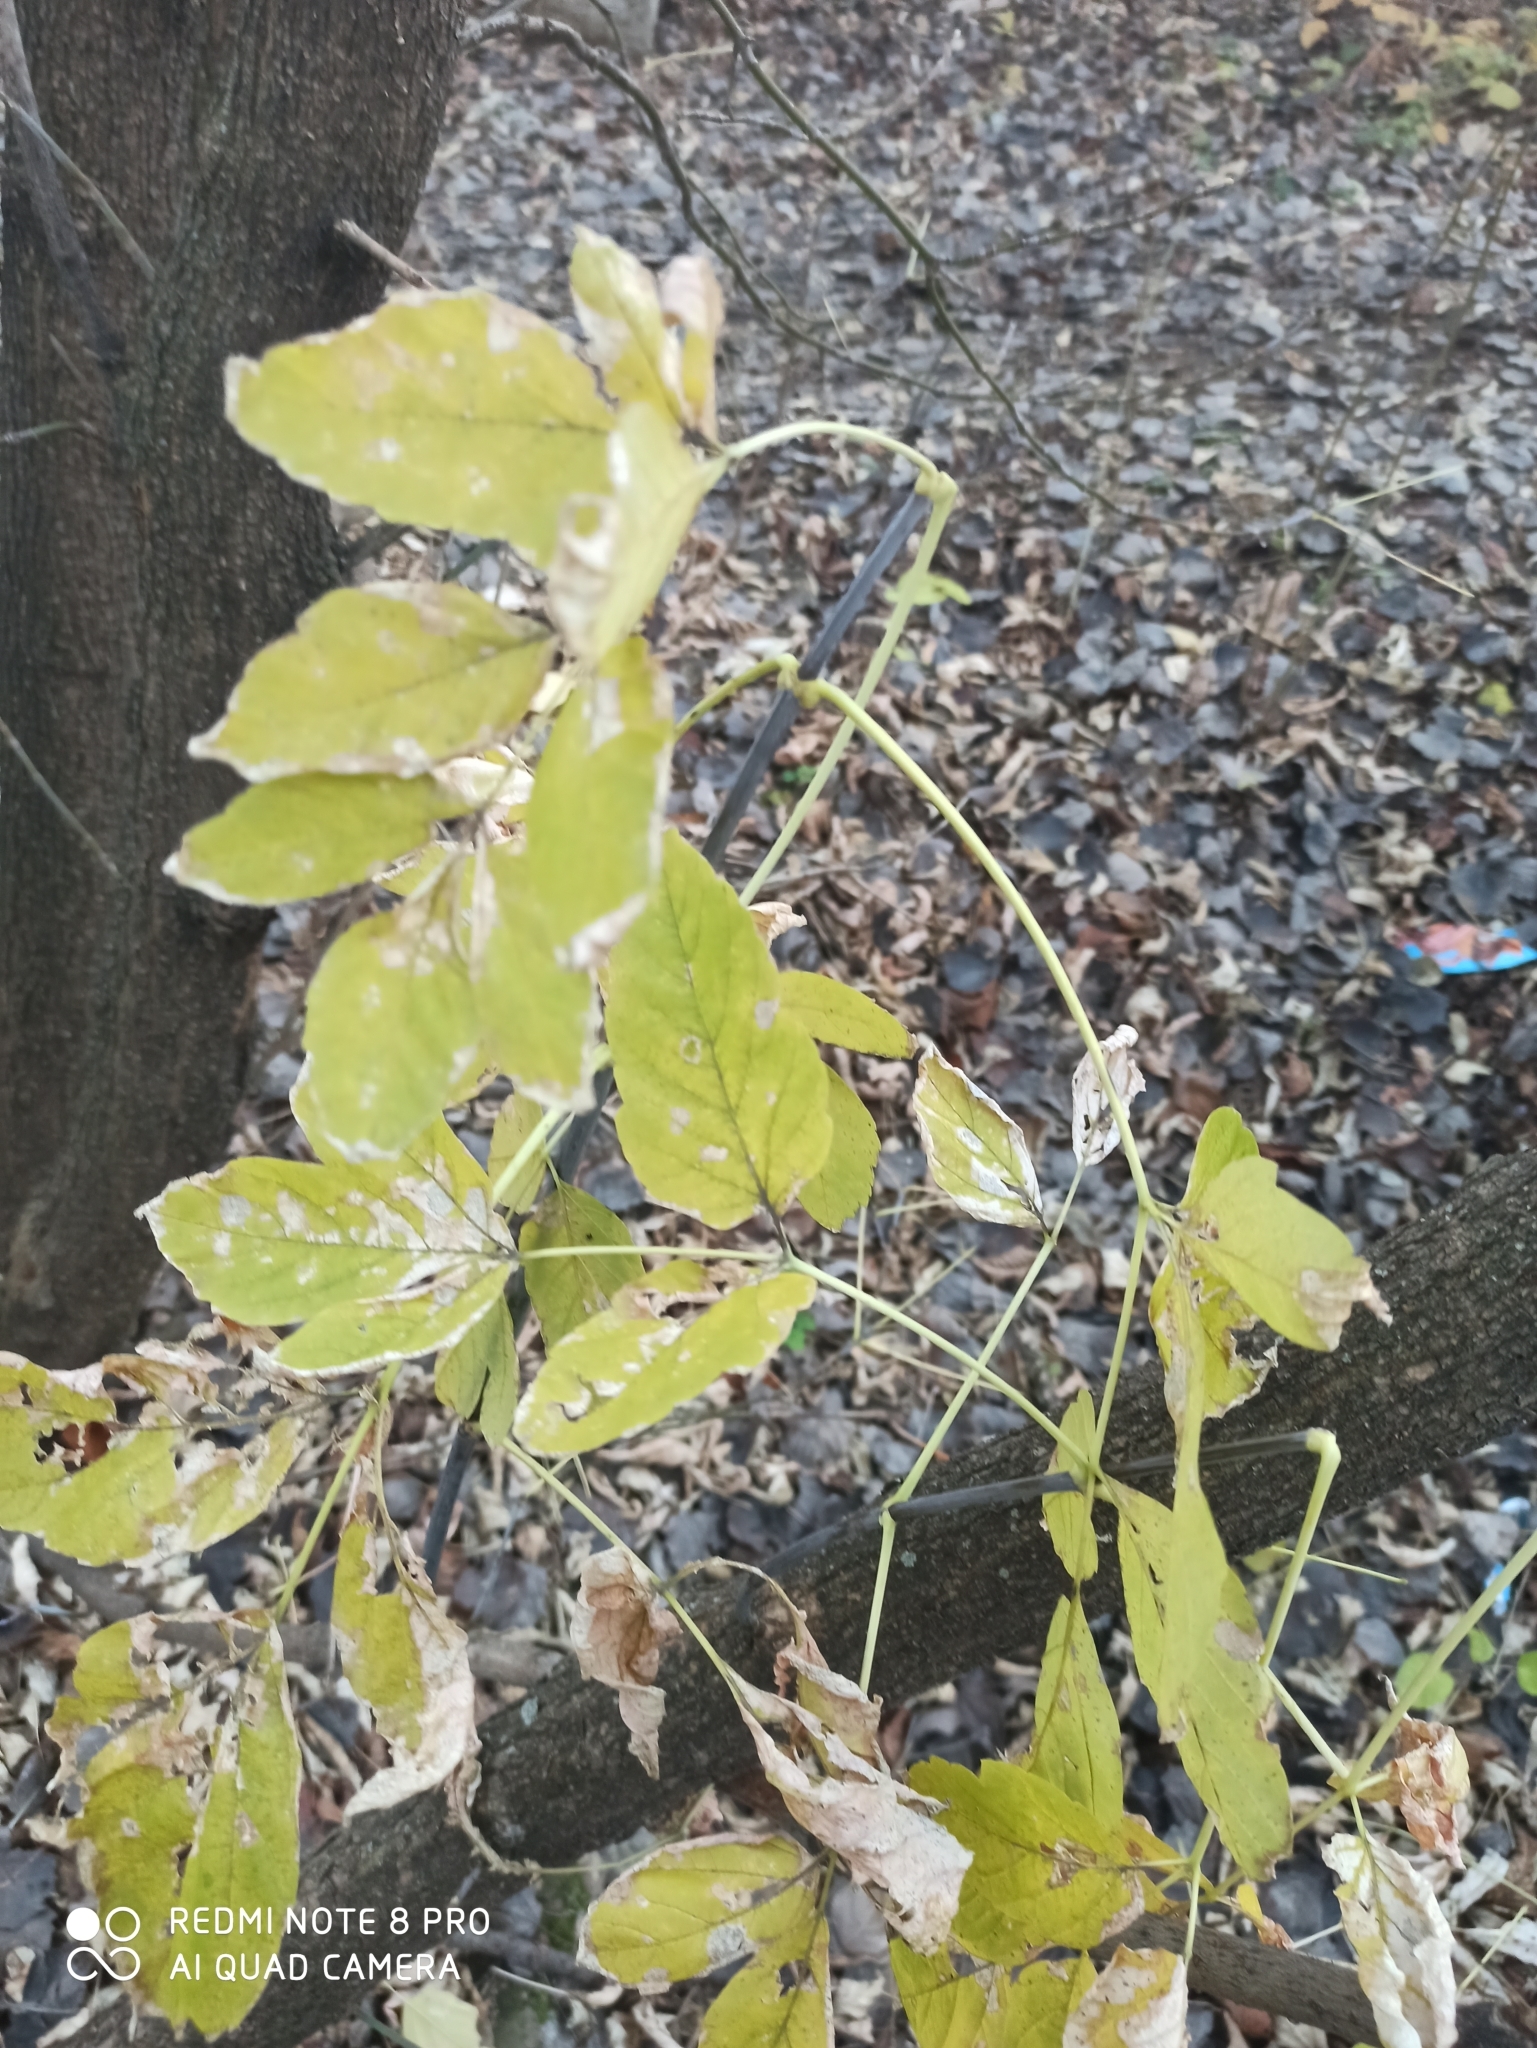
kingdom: Plantae
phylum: Tracheophyta
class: Magnoliopsida
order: Sapindales
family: Sapindaceae
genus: Acer
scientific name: Acer negundo
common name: Ashleaf maple
